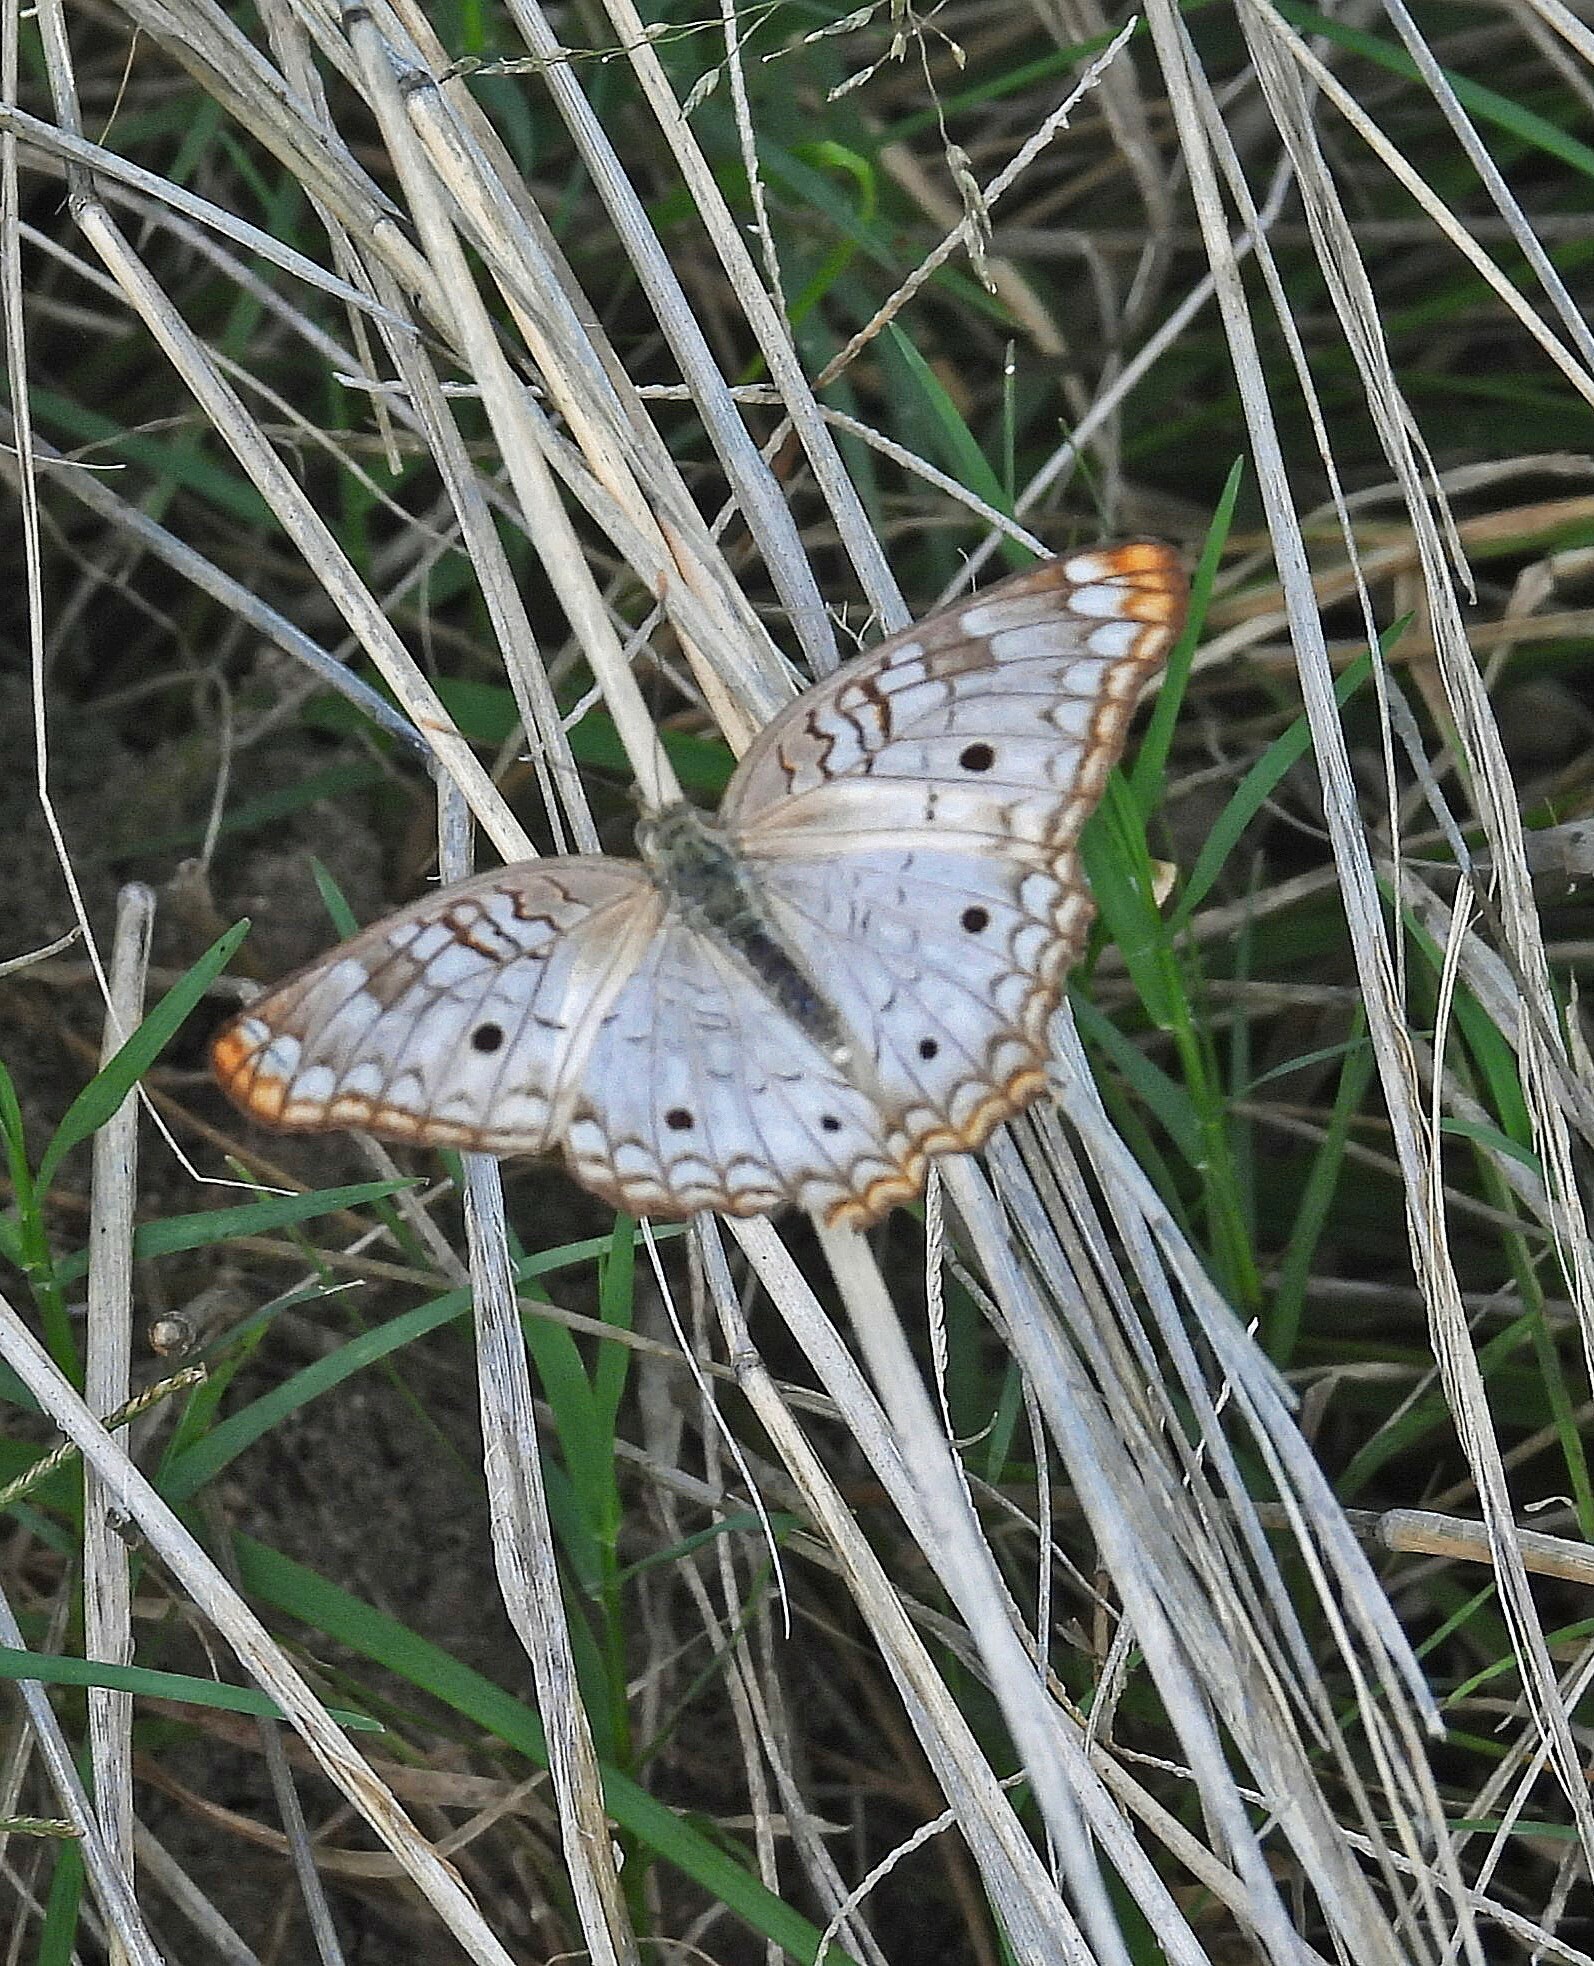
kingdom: Animalia
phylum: Arthropoda
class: Insecta
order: Lepidoptera
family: Nymphalidae
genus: Anartia
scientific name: Anartia jatrophae
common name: White peacock
